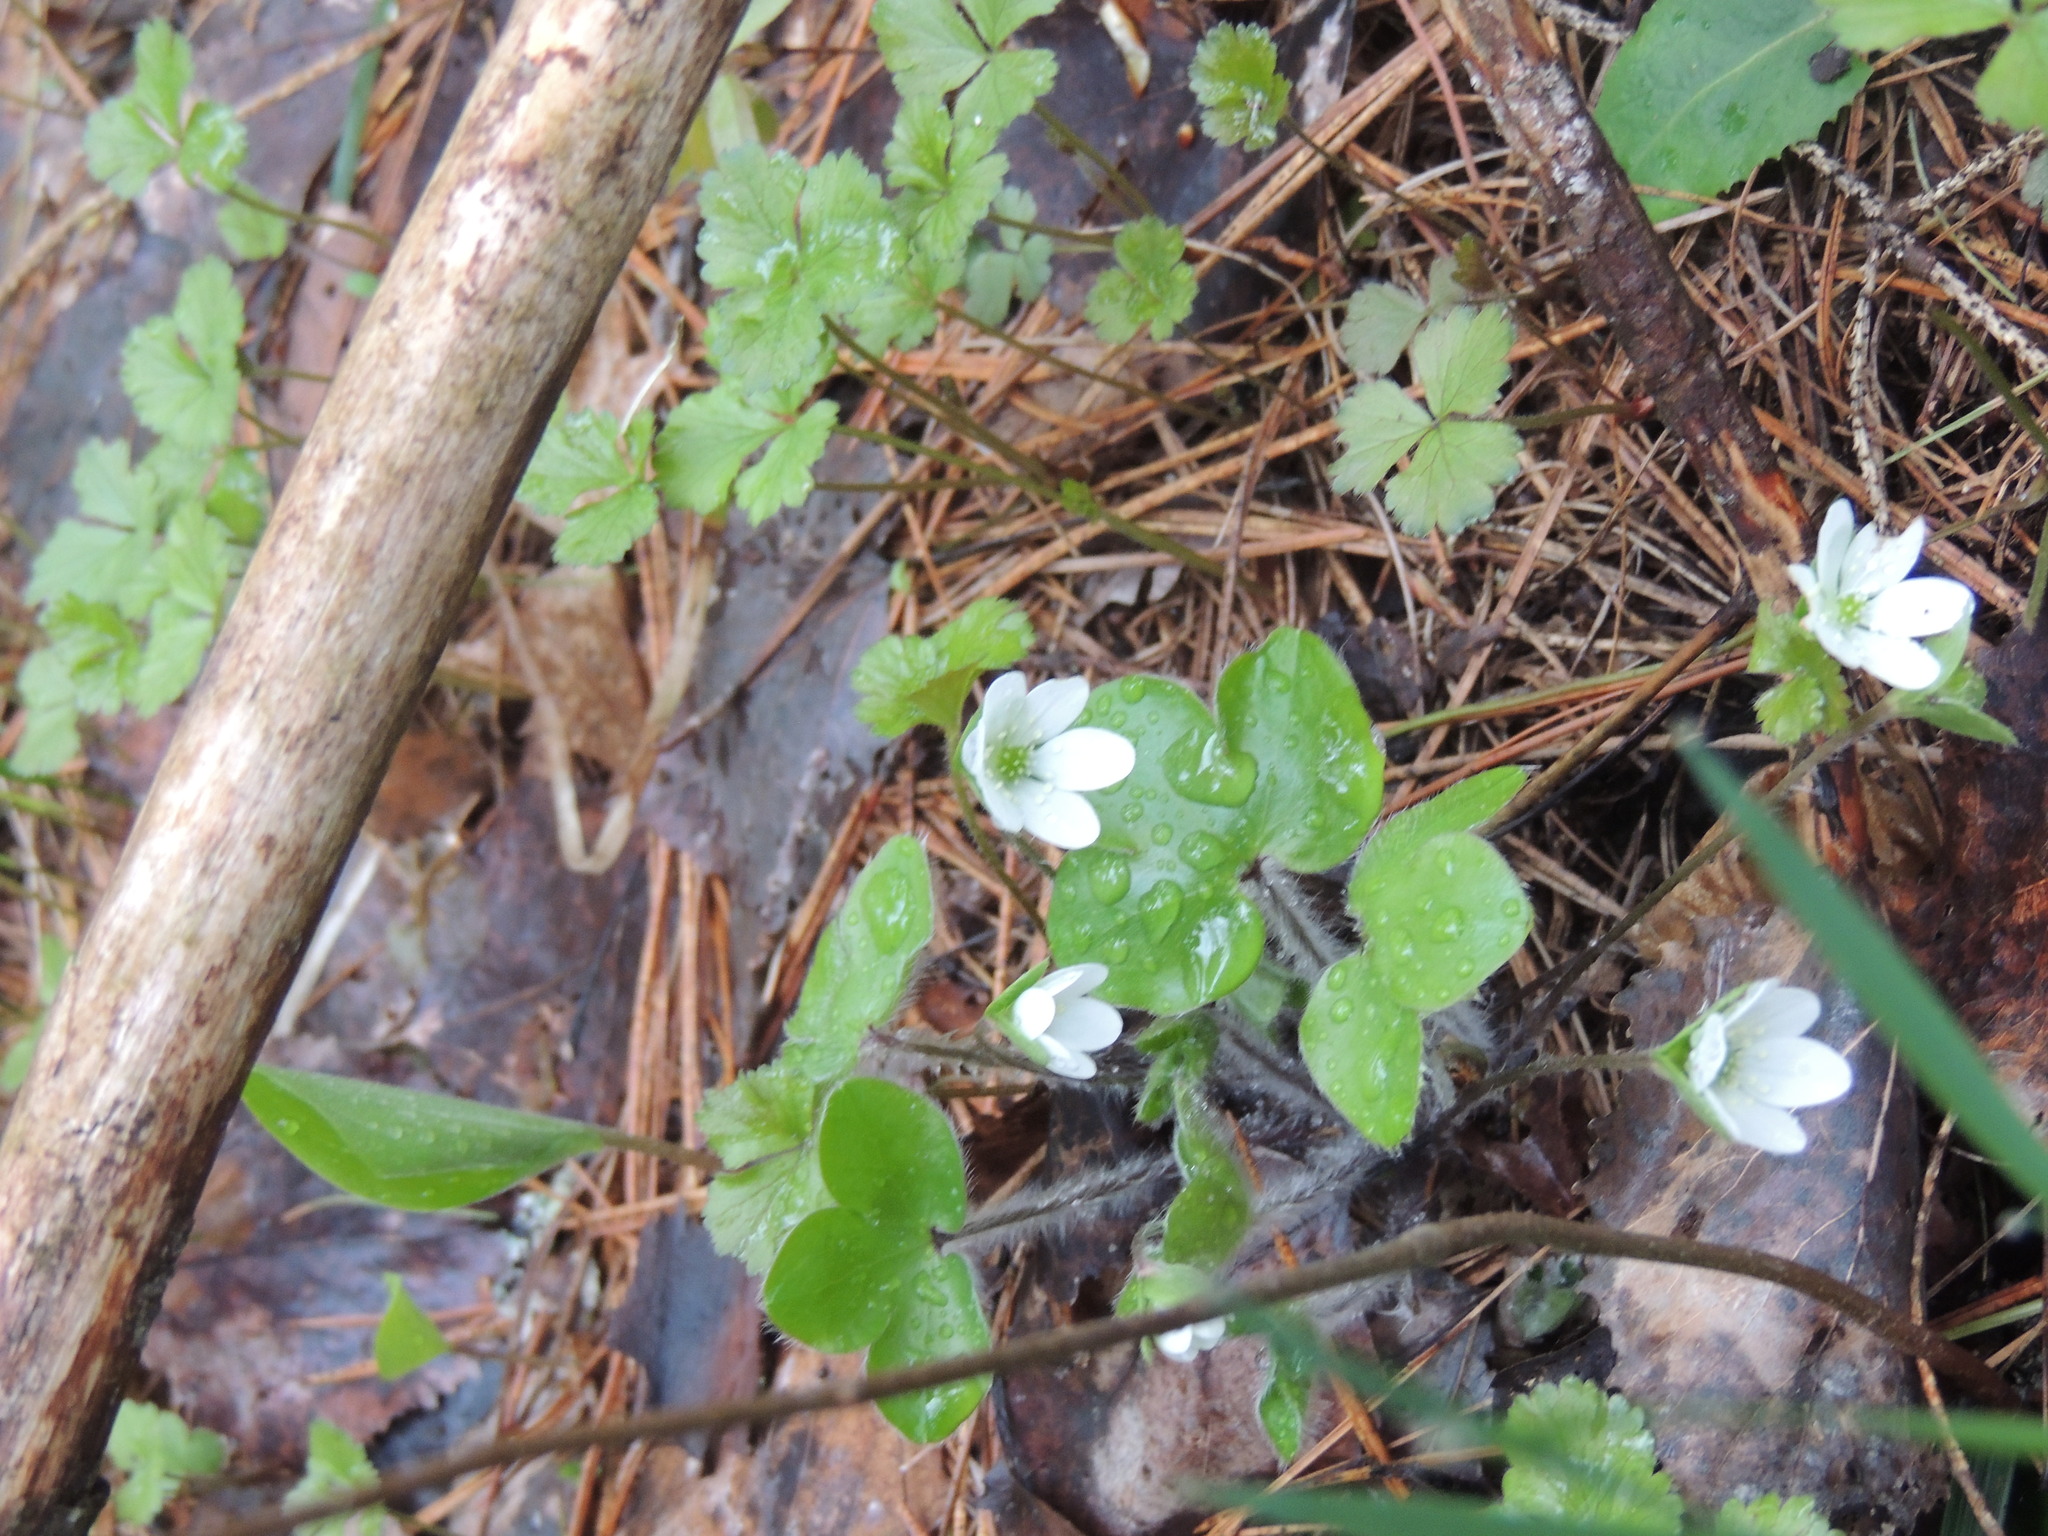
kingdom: Plantae
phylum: Tracheophyta
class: Magnoliopsida
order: Ranunculales
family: Ranunculaceae
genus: Hepatica
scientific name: Hepatica americana
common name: American hepatica
